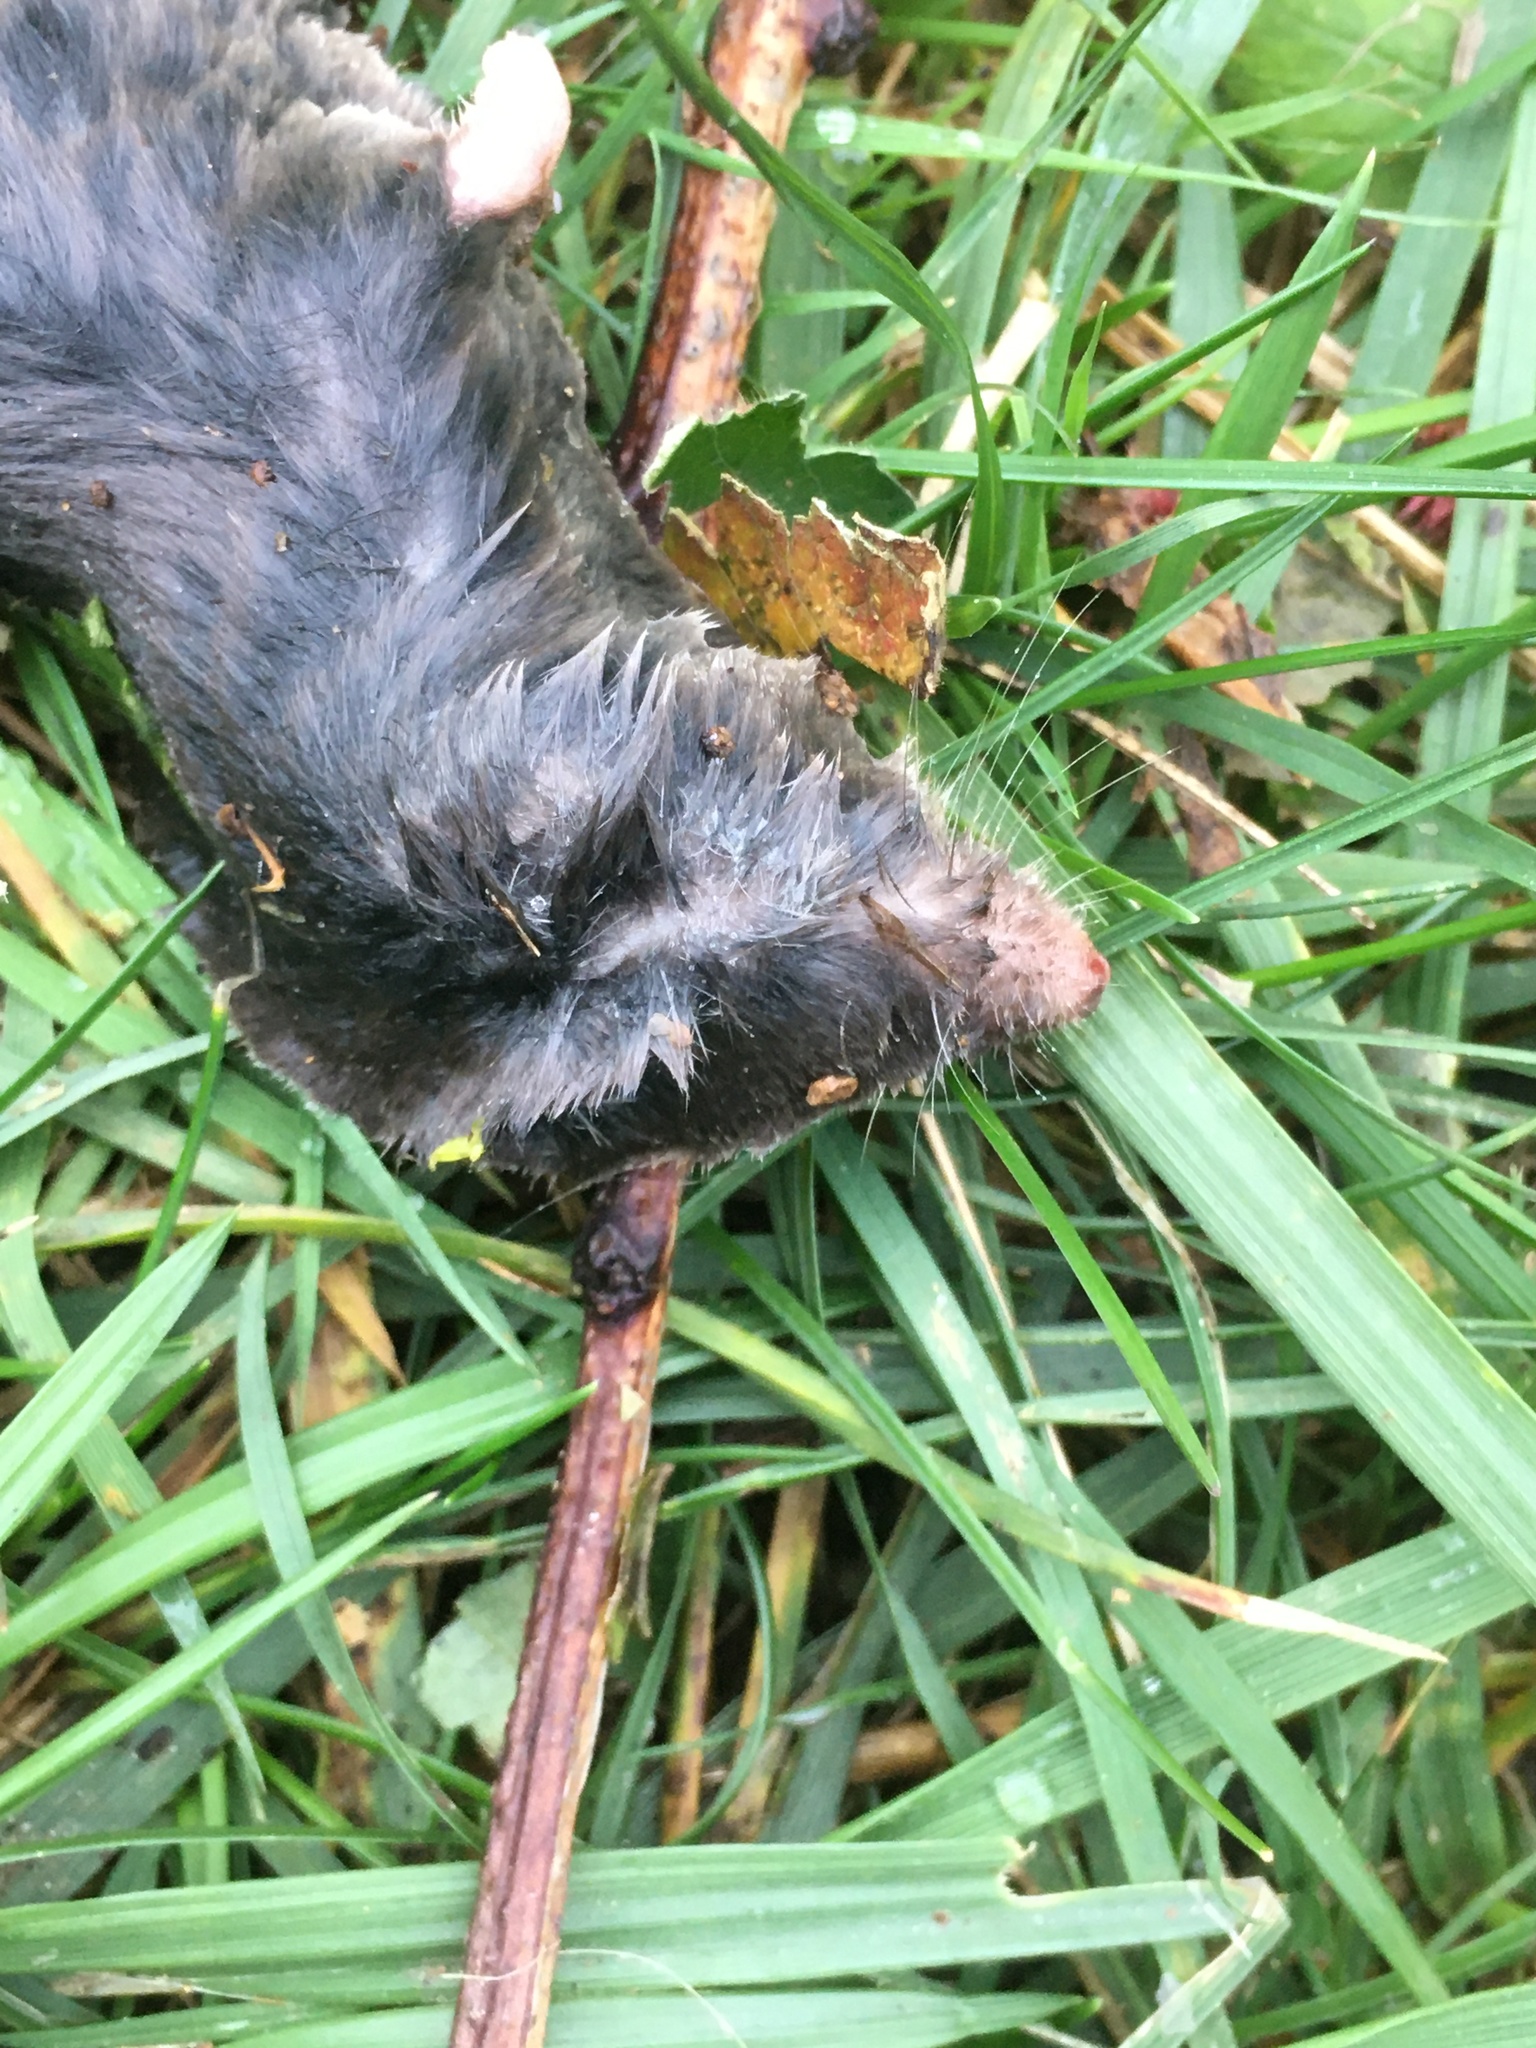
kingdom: Animalia
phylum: Chordata
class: Mammalia
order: Soricomorpha
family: Soricidae
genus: Blarina
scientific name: Blarina brevicauda
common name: Northern short-tailed shrew
